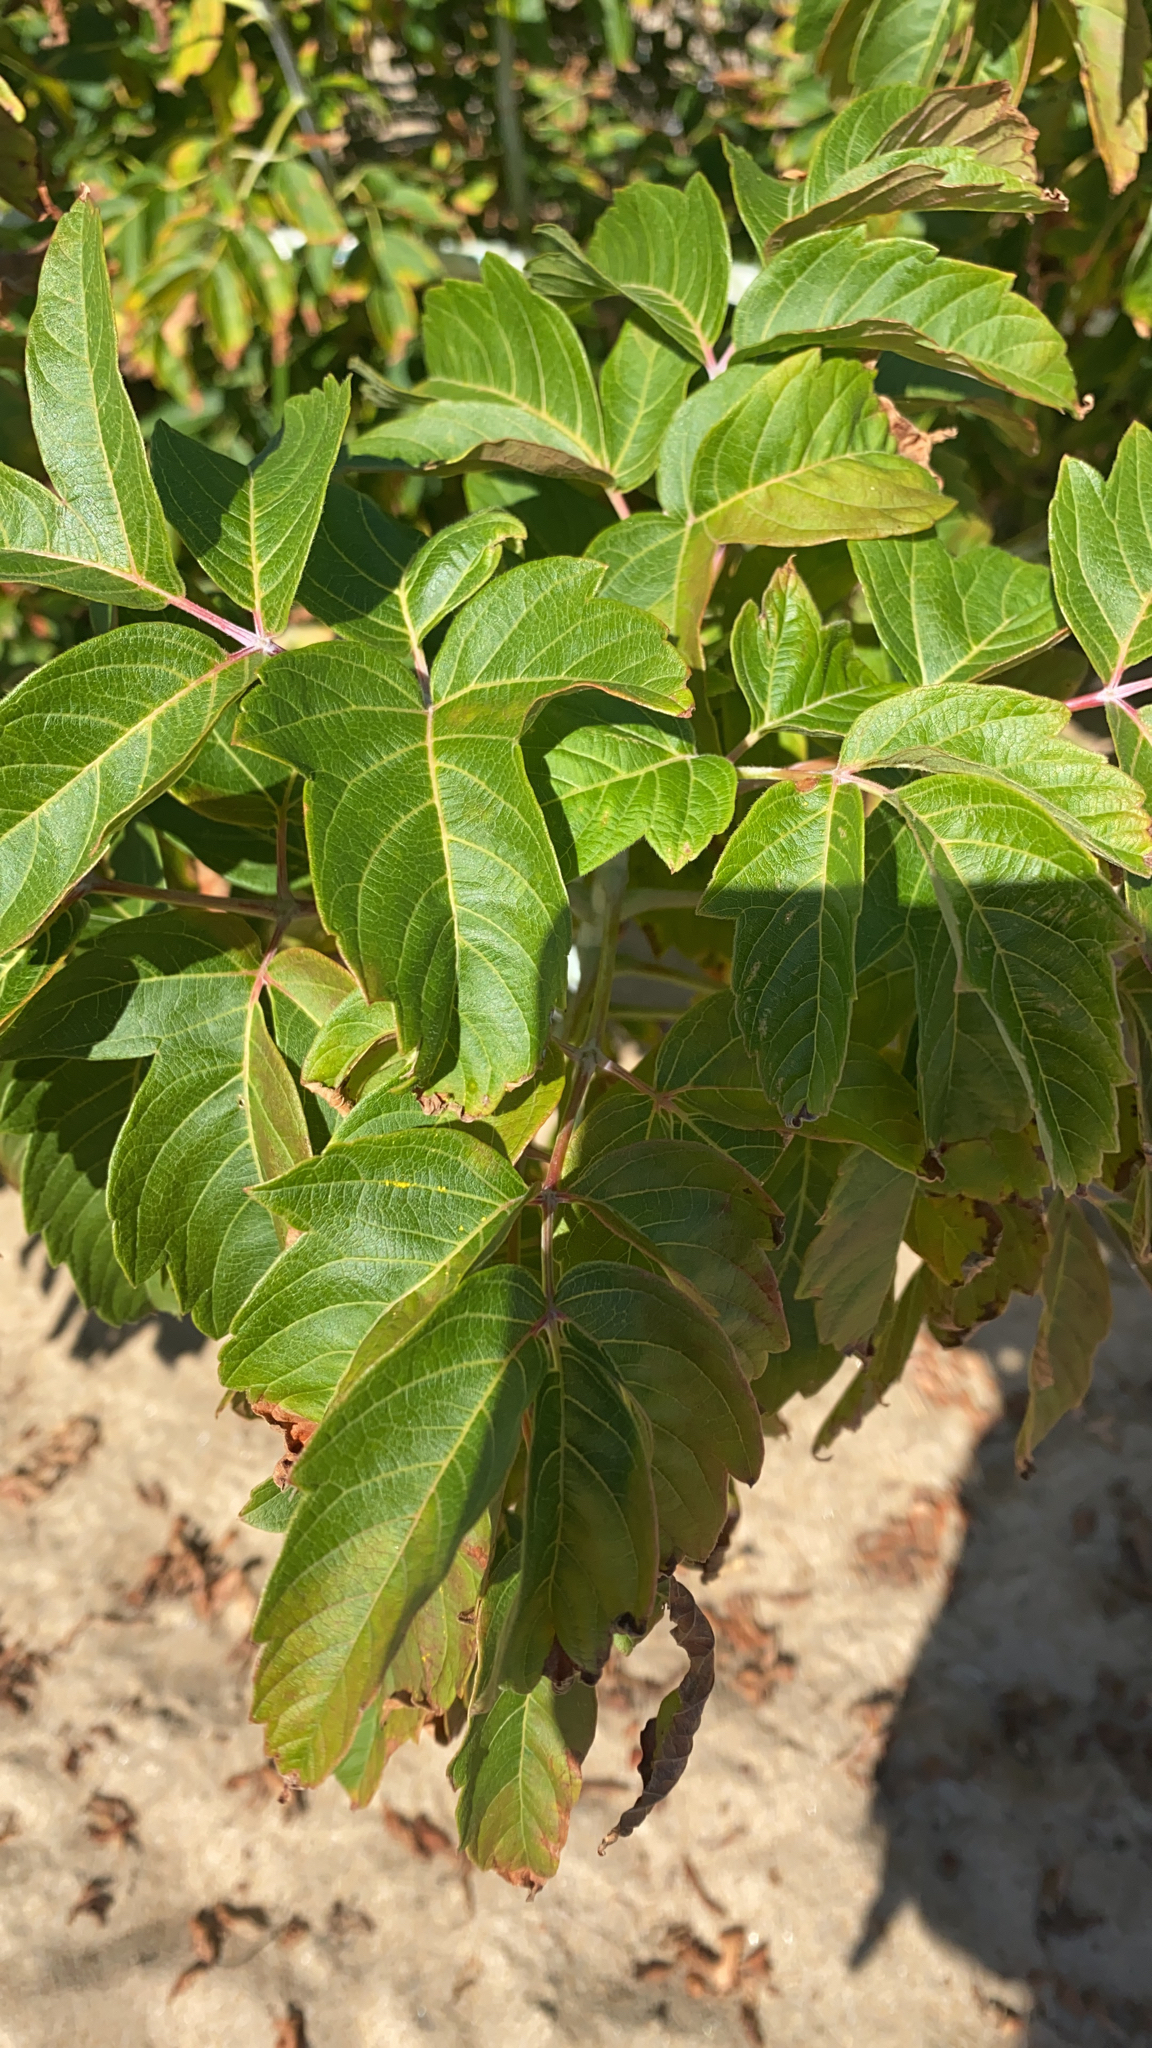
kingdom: Plantae
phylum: Tracheophyta
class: Magnoliopsida
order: Sapindales
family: Sapindaceae
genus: Acer
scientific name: Acer negundo
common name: Ashleaf maple
